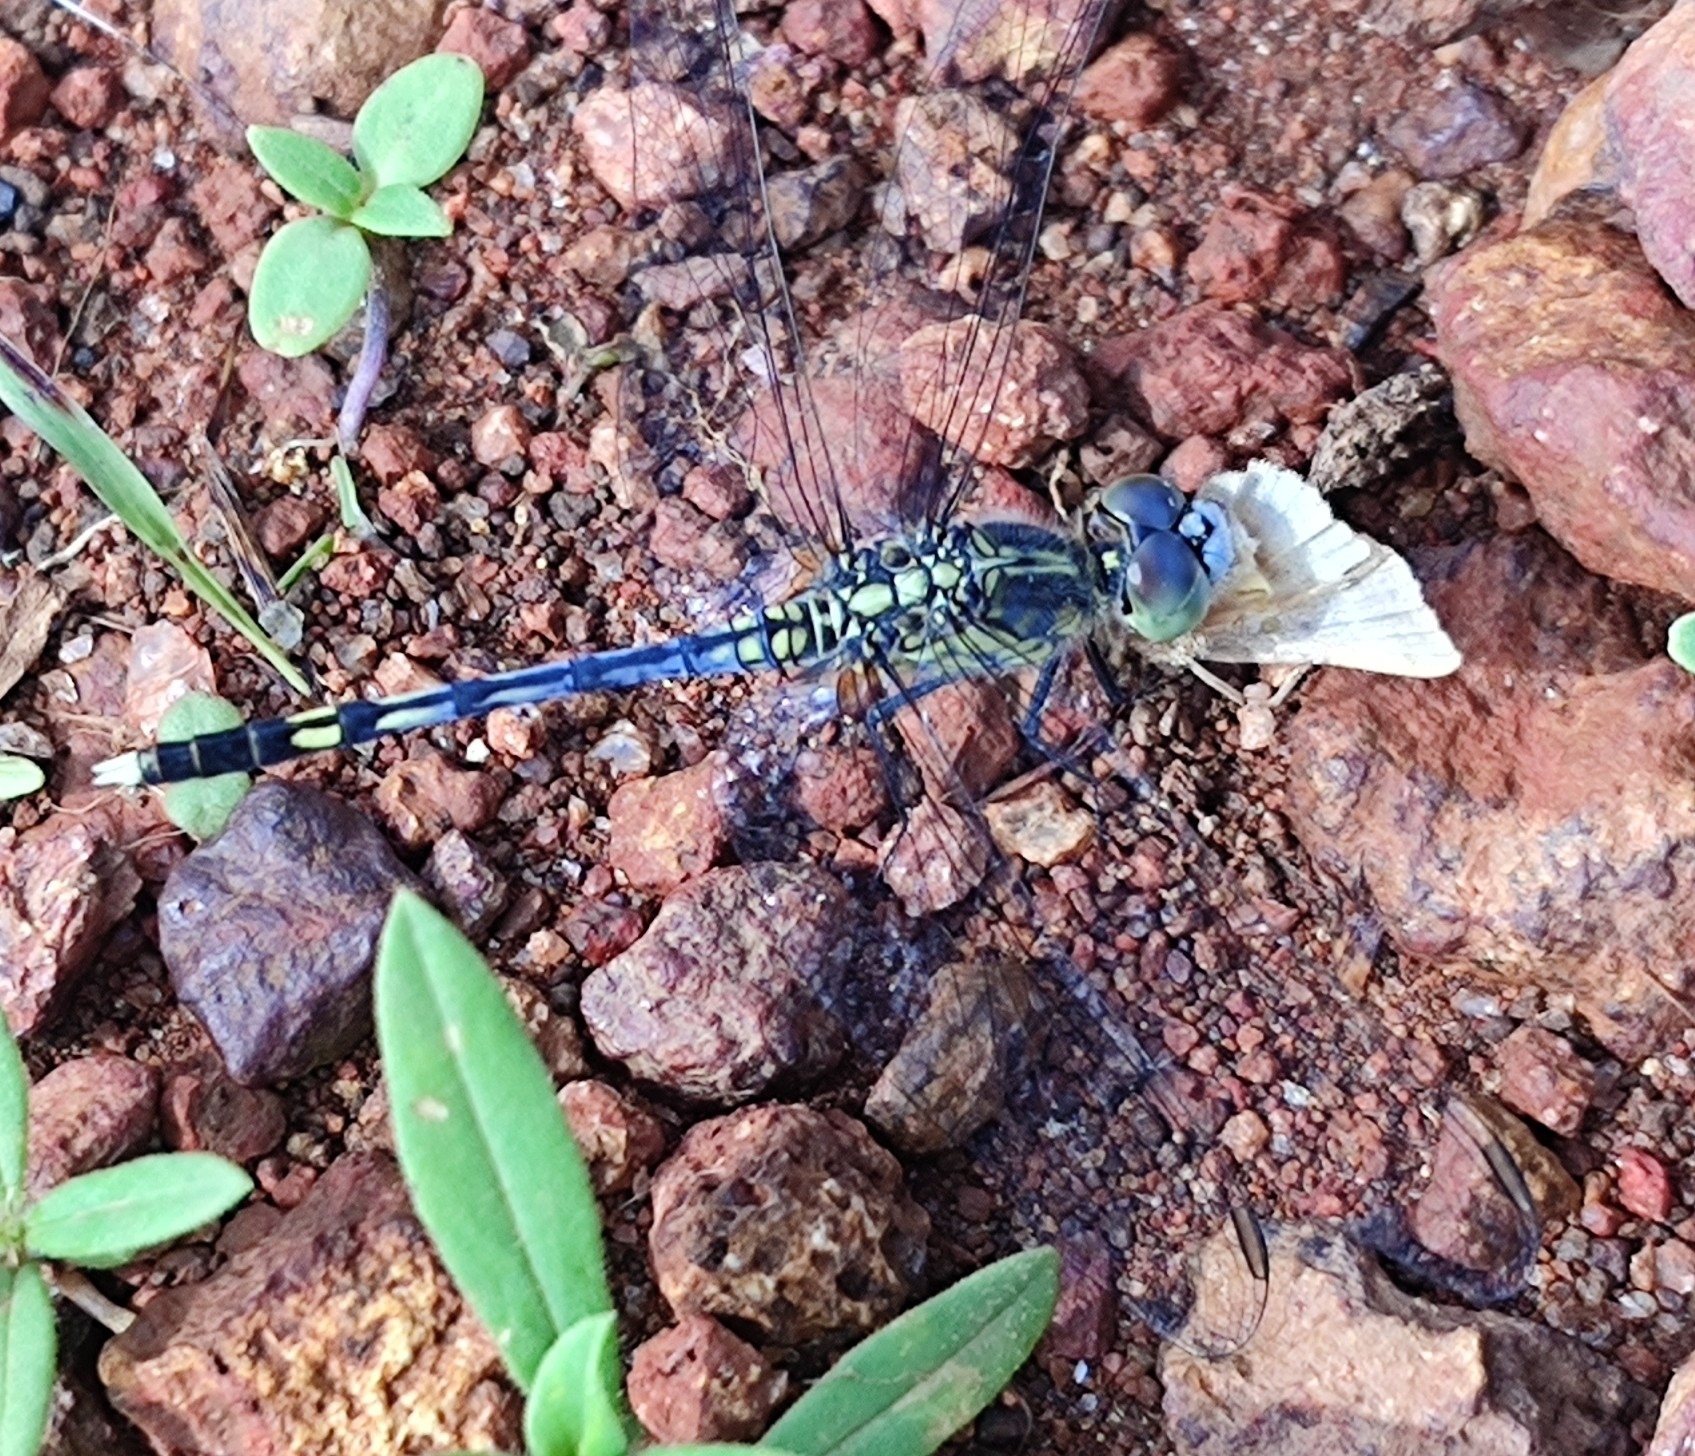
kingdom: Animalia
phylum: Arthropoda
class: Insecta
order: Odonata
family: Libellulidae
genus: Diplacodes
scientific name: Diplacodes trivialis
